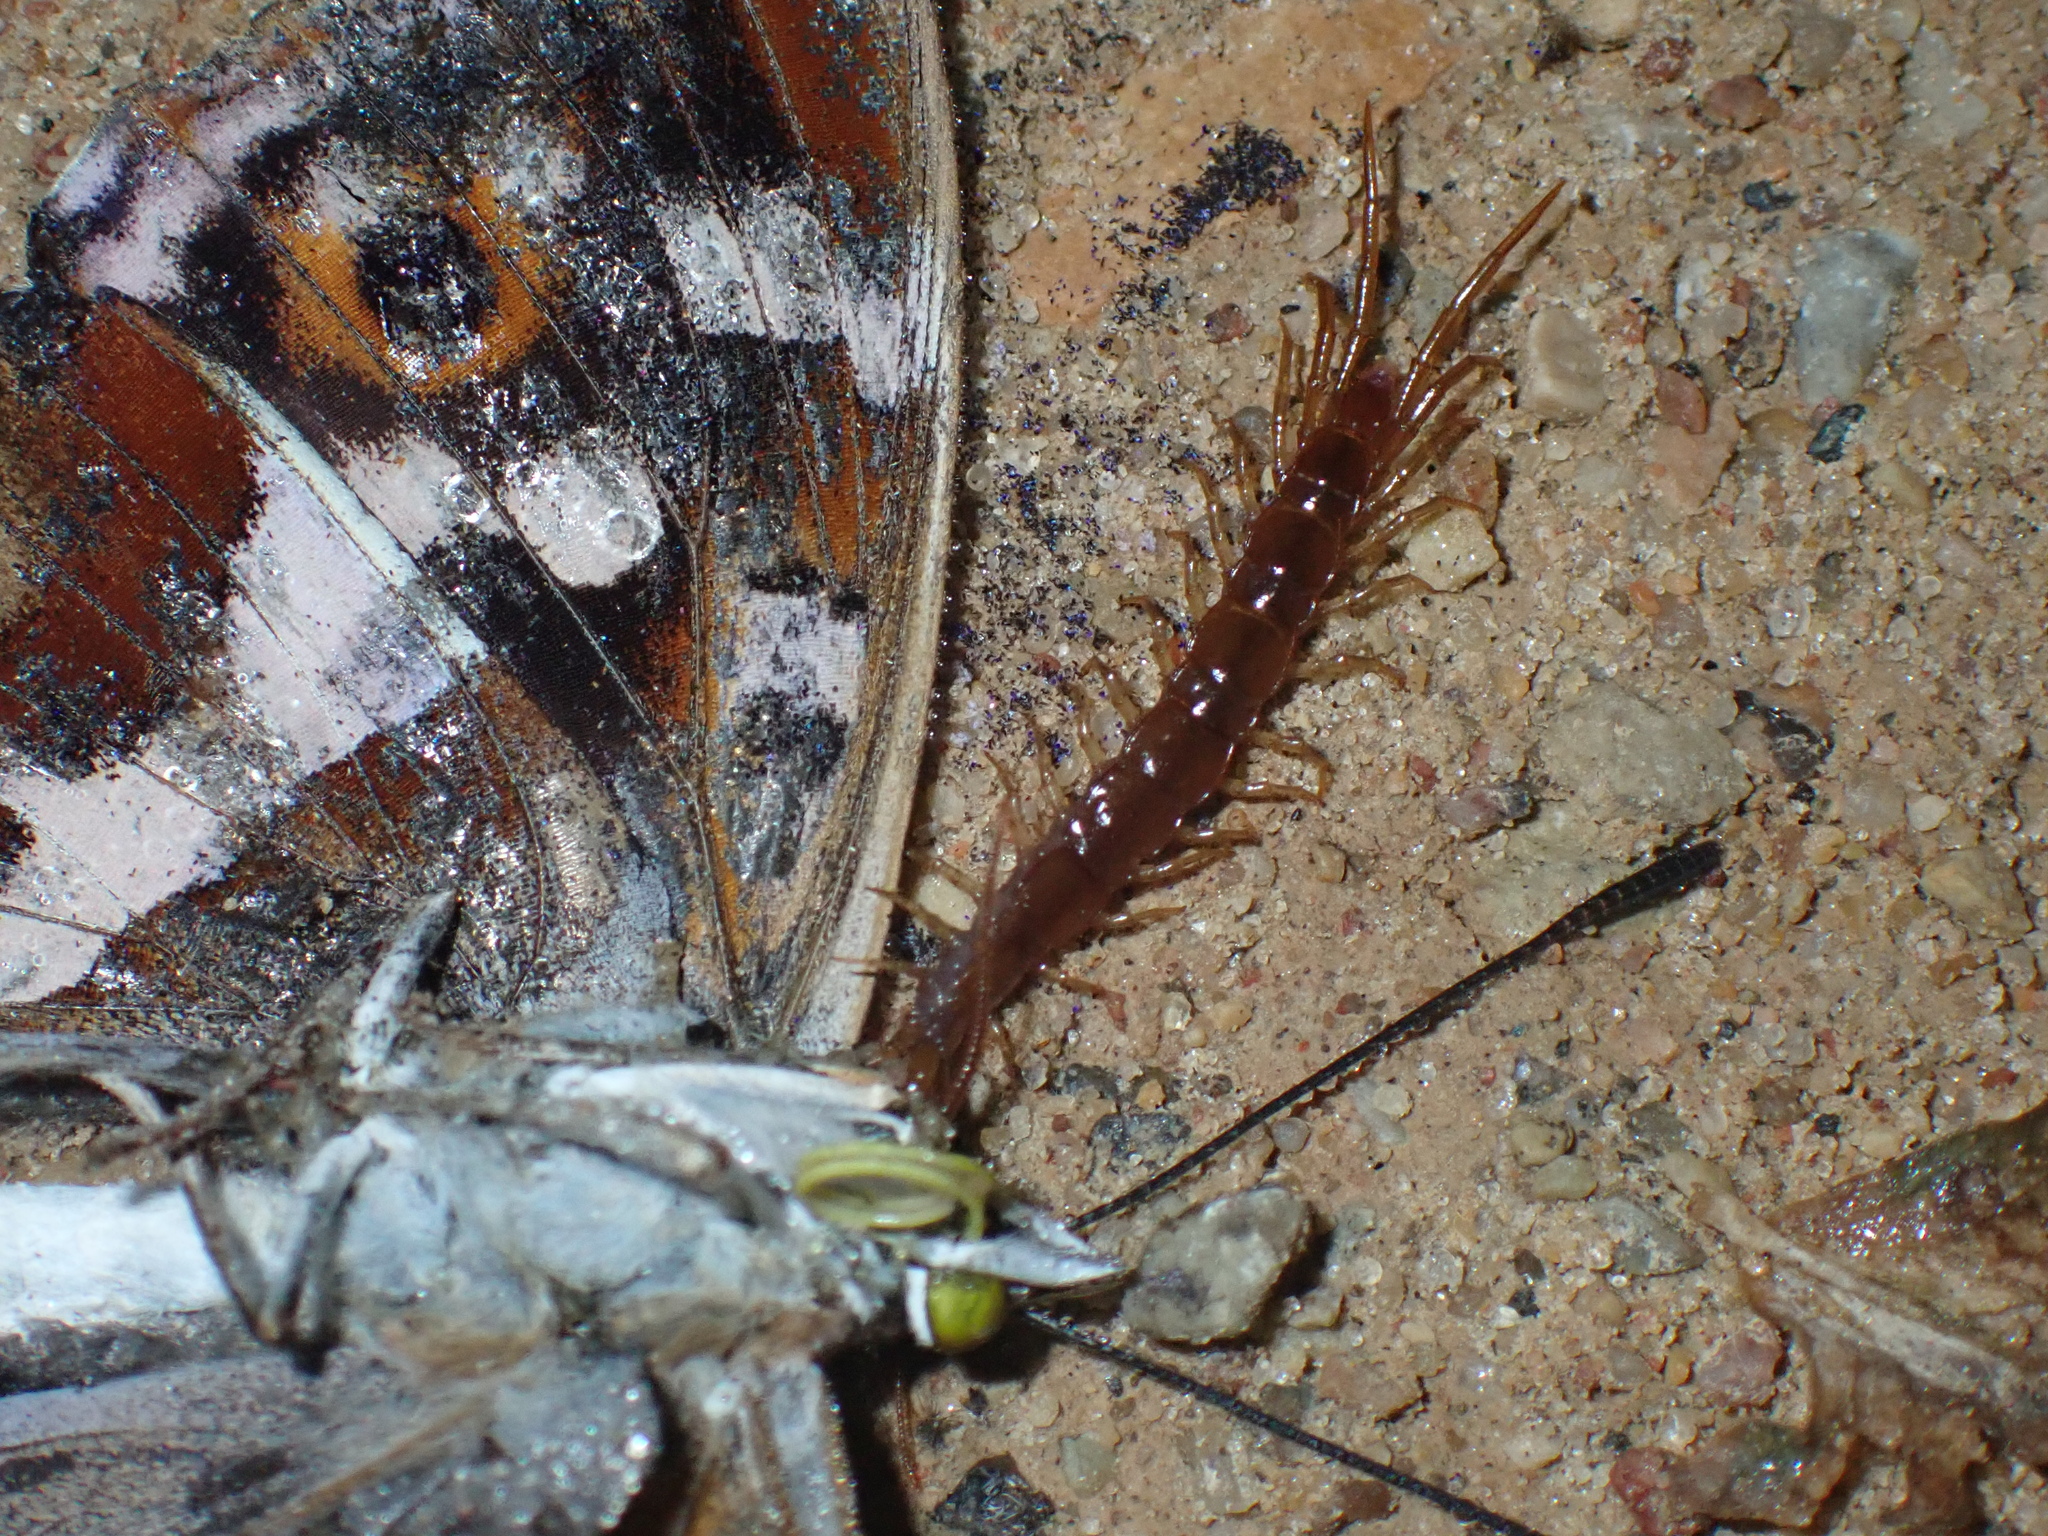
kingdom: Animalia
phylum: Arthropoda
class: Chilopoda
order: Lithobiomorpha
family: Lithobiidae
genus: Lithobius
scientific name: Lithobius forficatus
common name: Centipede
